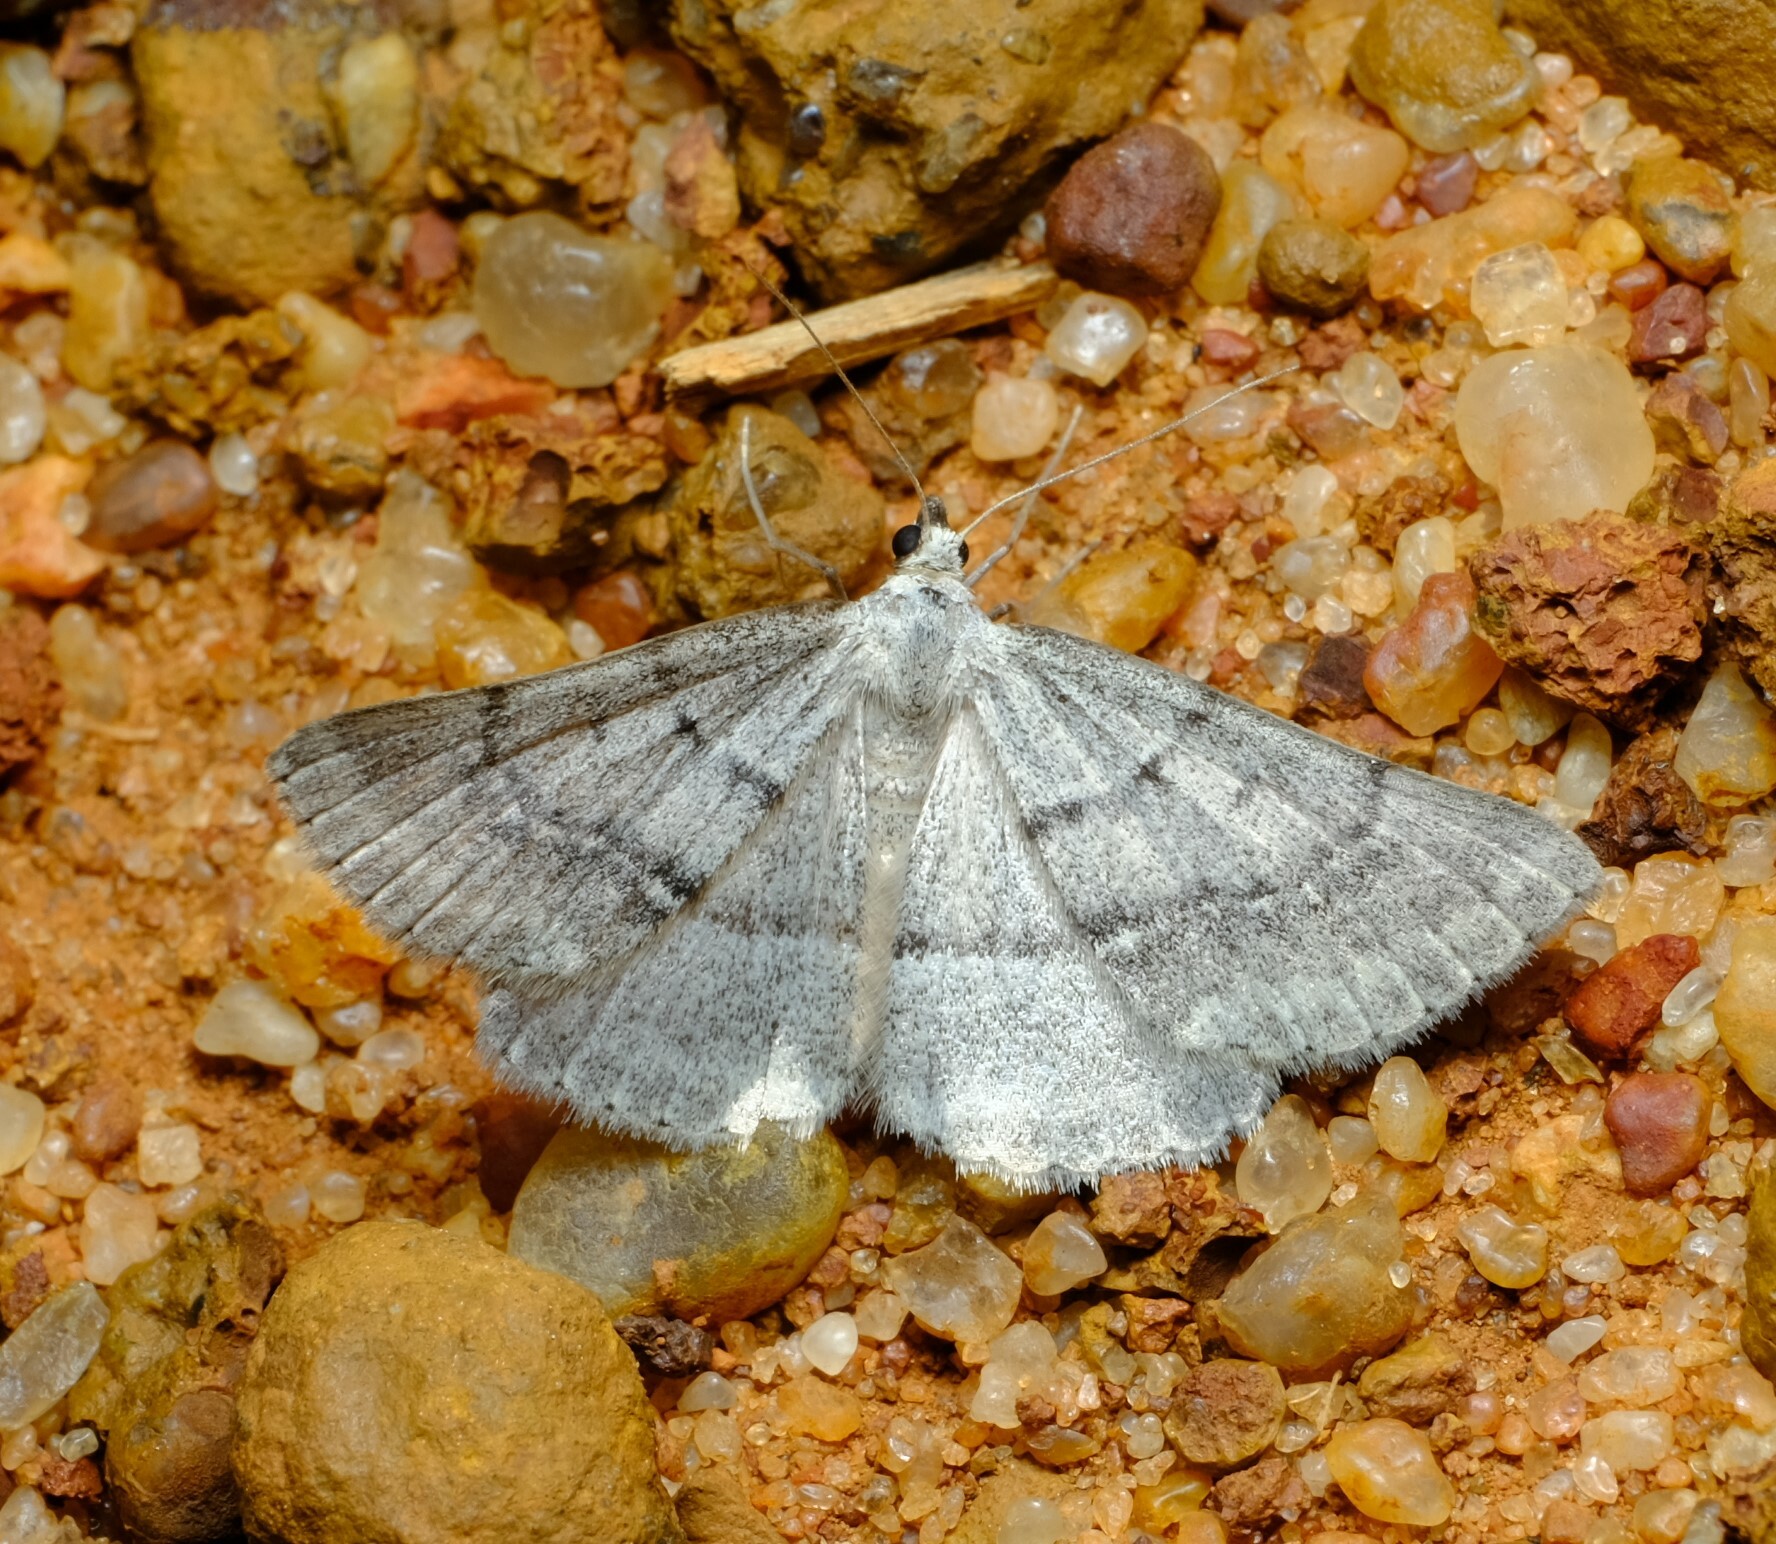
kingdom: Animalia
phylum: Arthropoda
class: Insecta
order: Lepidoptera
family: Geometridae
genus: Nearcha
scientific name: Nearcha staurotis
